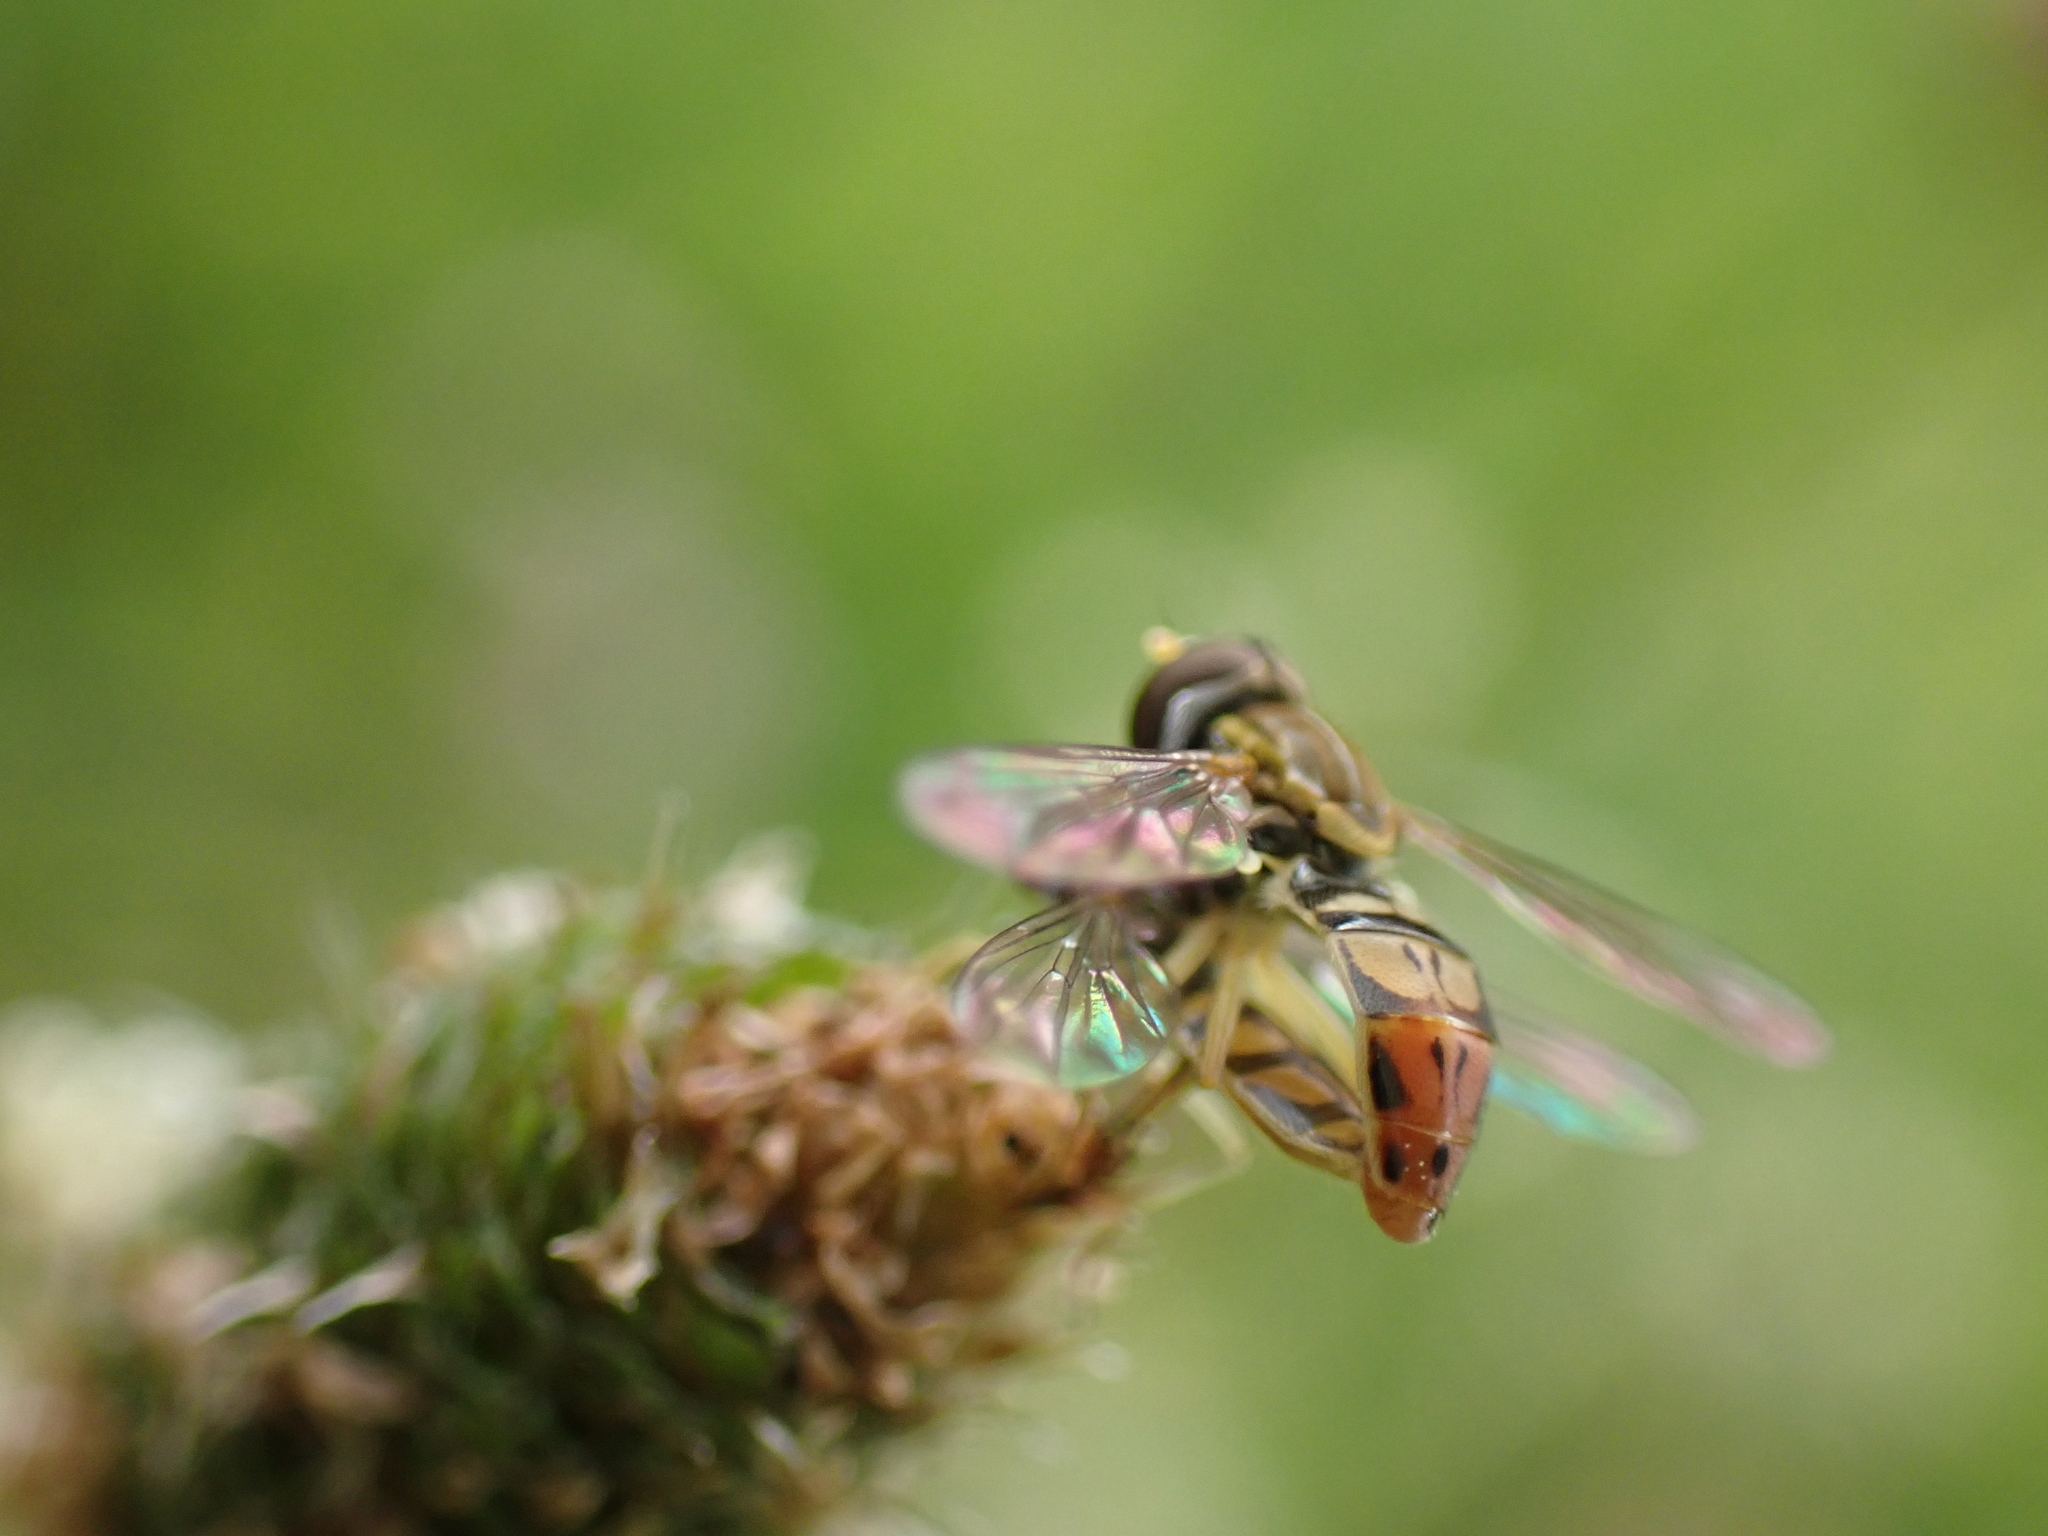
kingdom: Animalia
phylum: Arthropoda
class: Insecta
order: Diptera
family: Syrphidae
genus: Toxomerus
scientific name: Toxomerus marginatus
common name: Syrphid fly
